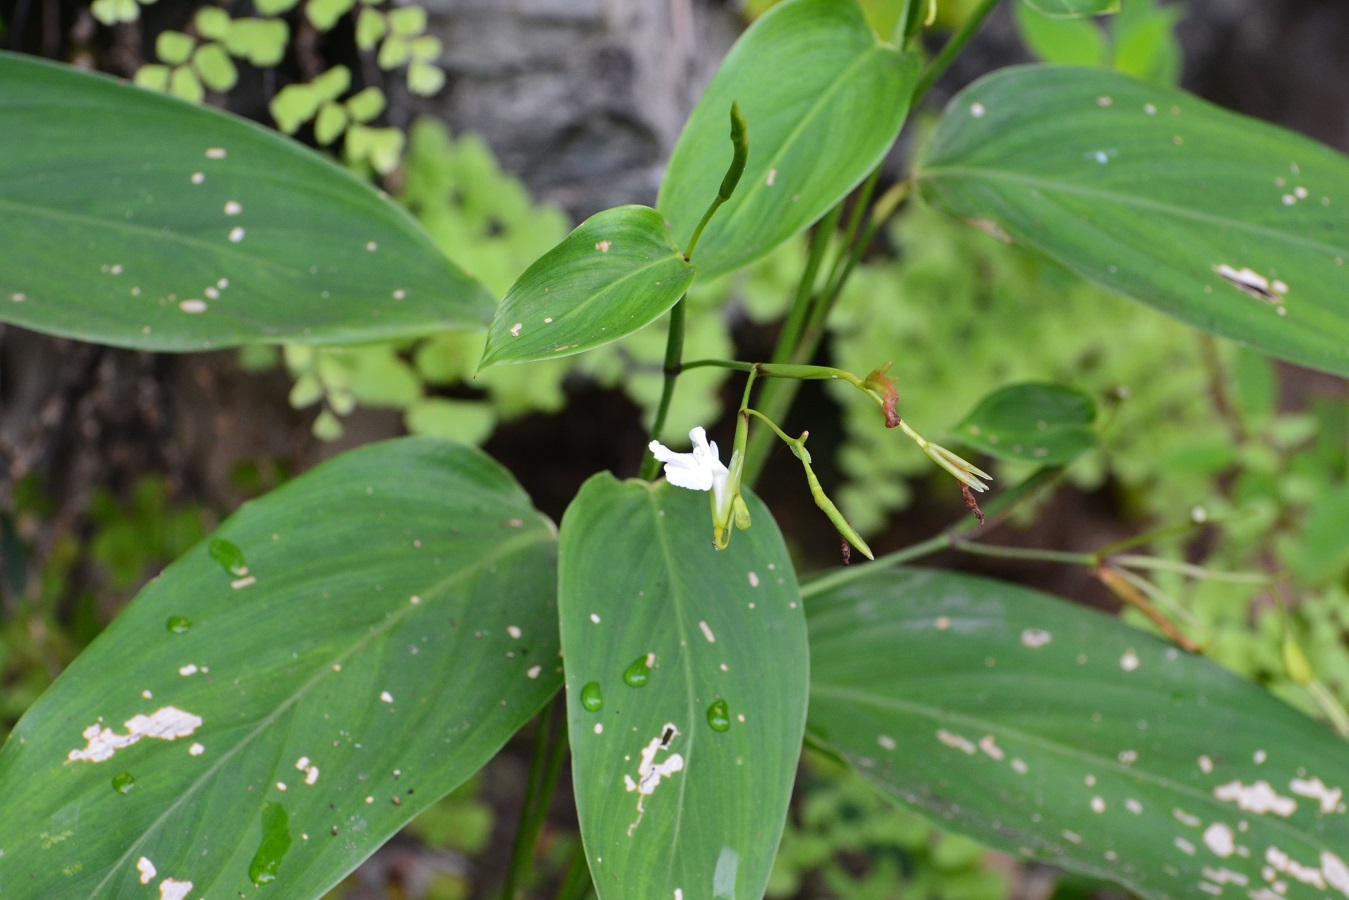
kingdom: Plantae
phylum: Tracheophyta
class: Liliopsida
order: Zingiberales
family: Marantaceae
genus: Maranta
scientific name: Maranta arundinacea
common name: Arrowroot
